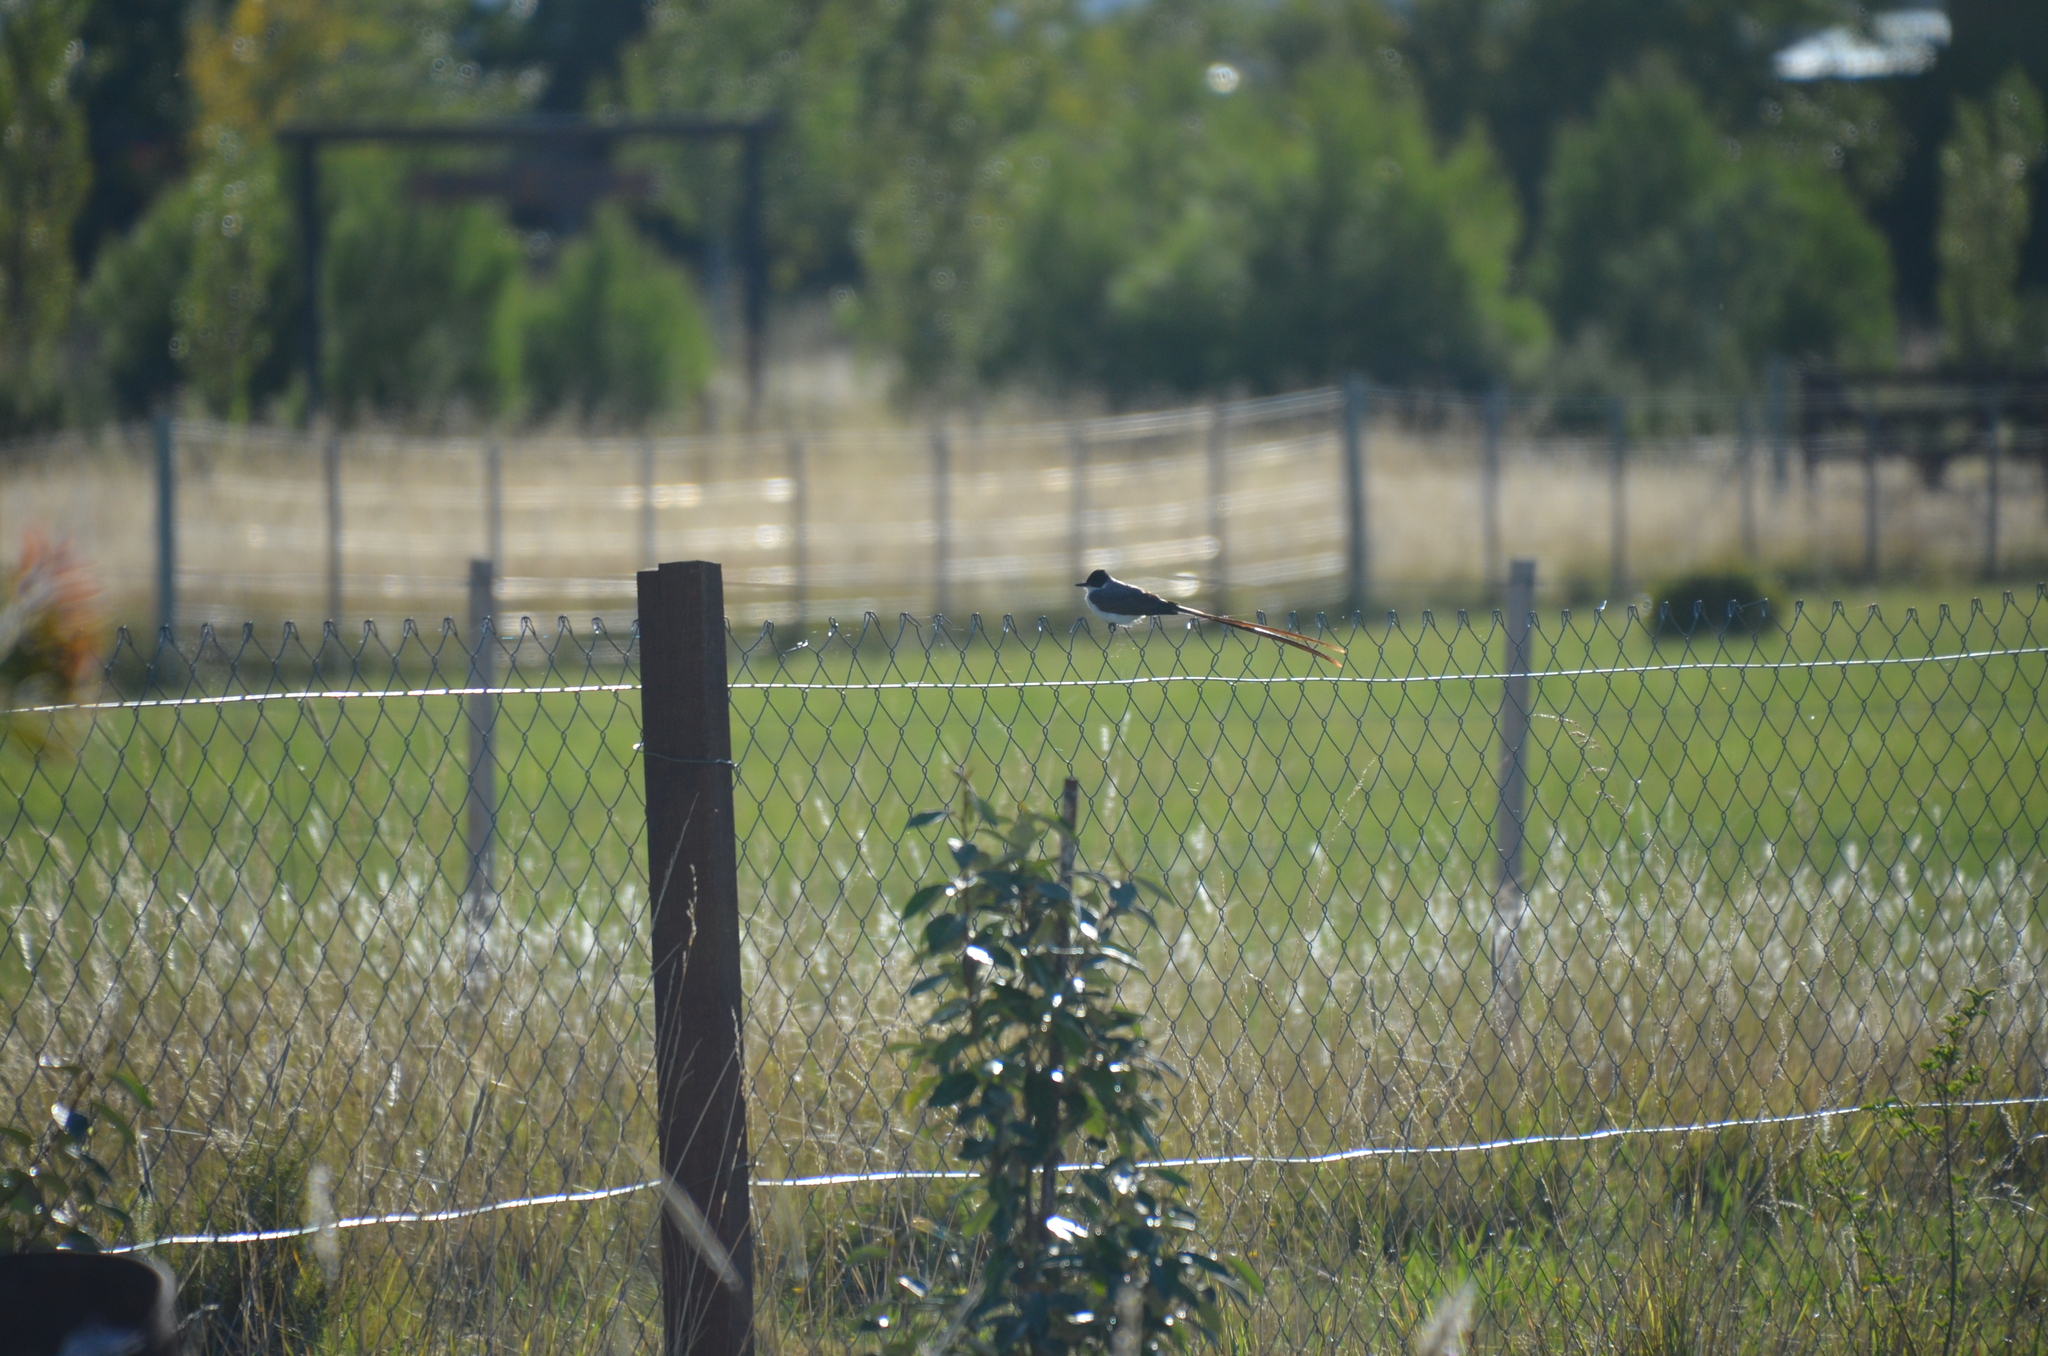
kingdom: Animalia
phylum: Chordata
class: Aves
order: Passeriformes
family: Tyrannidae
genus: Tyrannus
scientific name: Tyrannus savana
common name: Fork-tailed flycatcher
